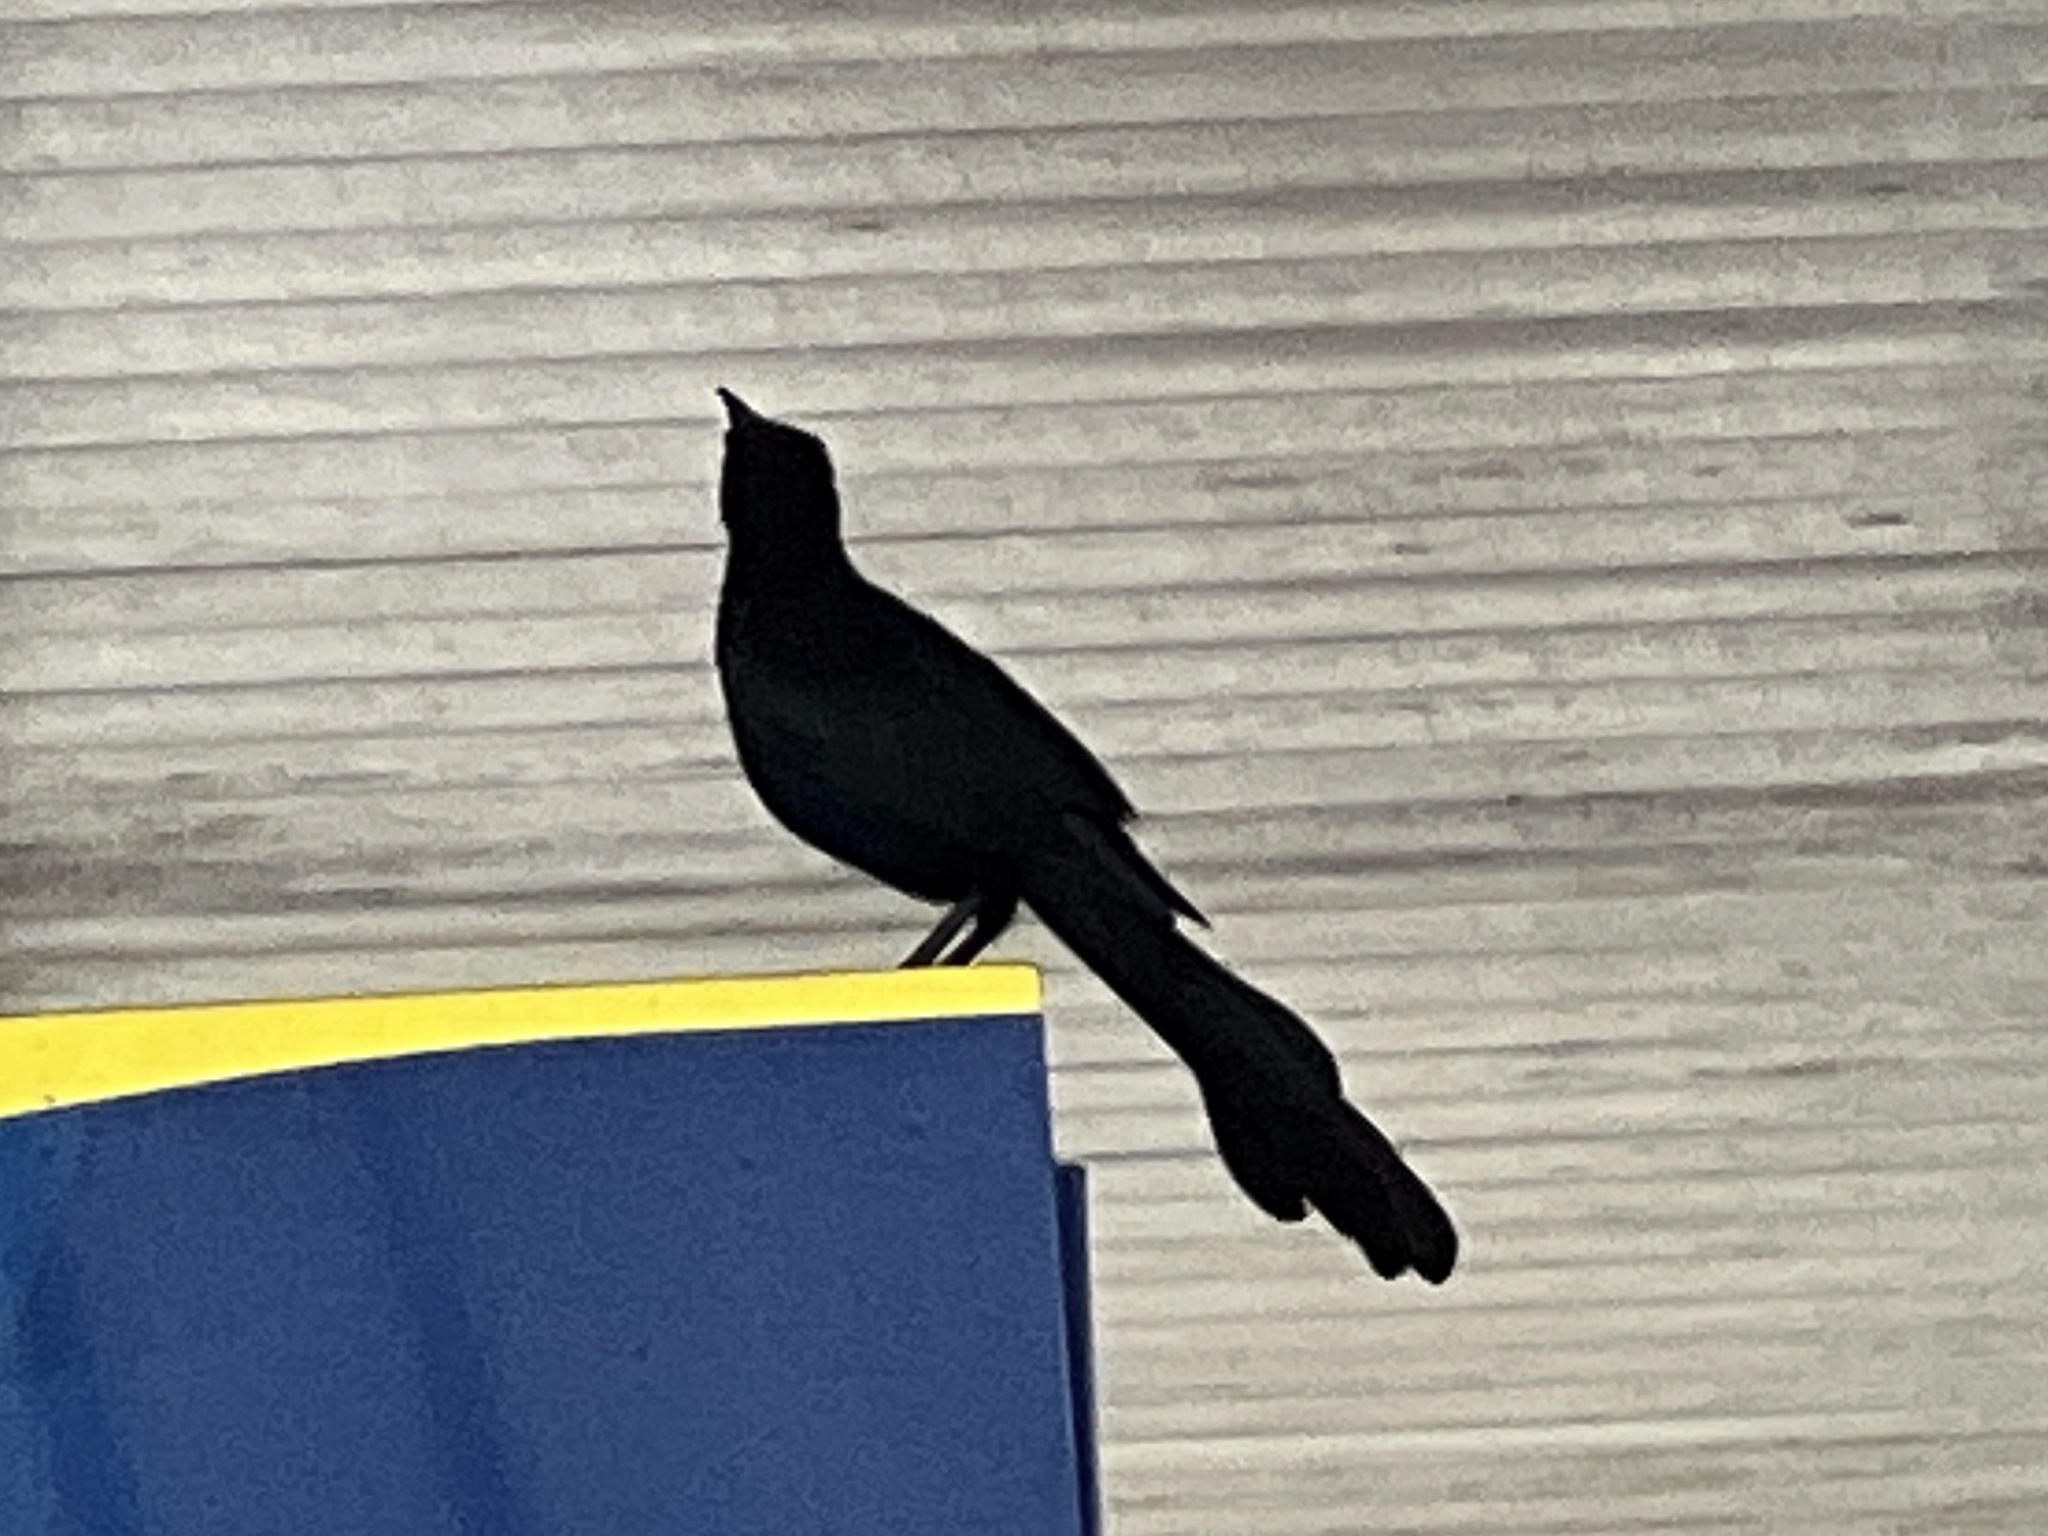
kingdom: Animalia
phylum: Chordata
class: Aves
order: Passeriformes
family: Icteridae
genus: Quiscalus
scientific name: Quiscalus mexicanus
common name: Great-tailed grackle
